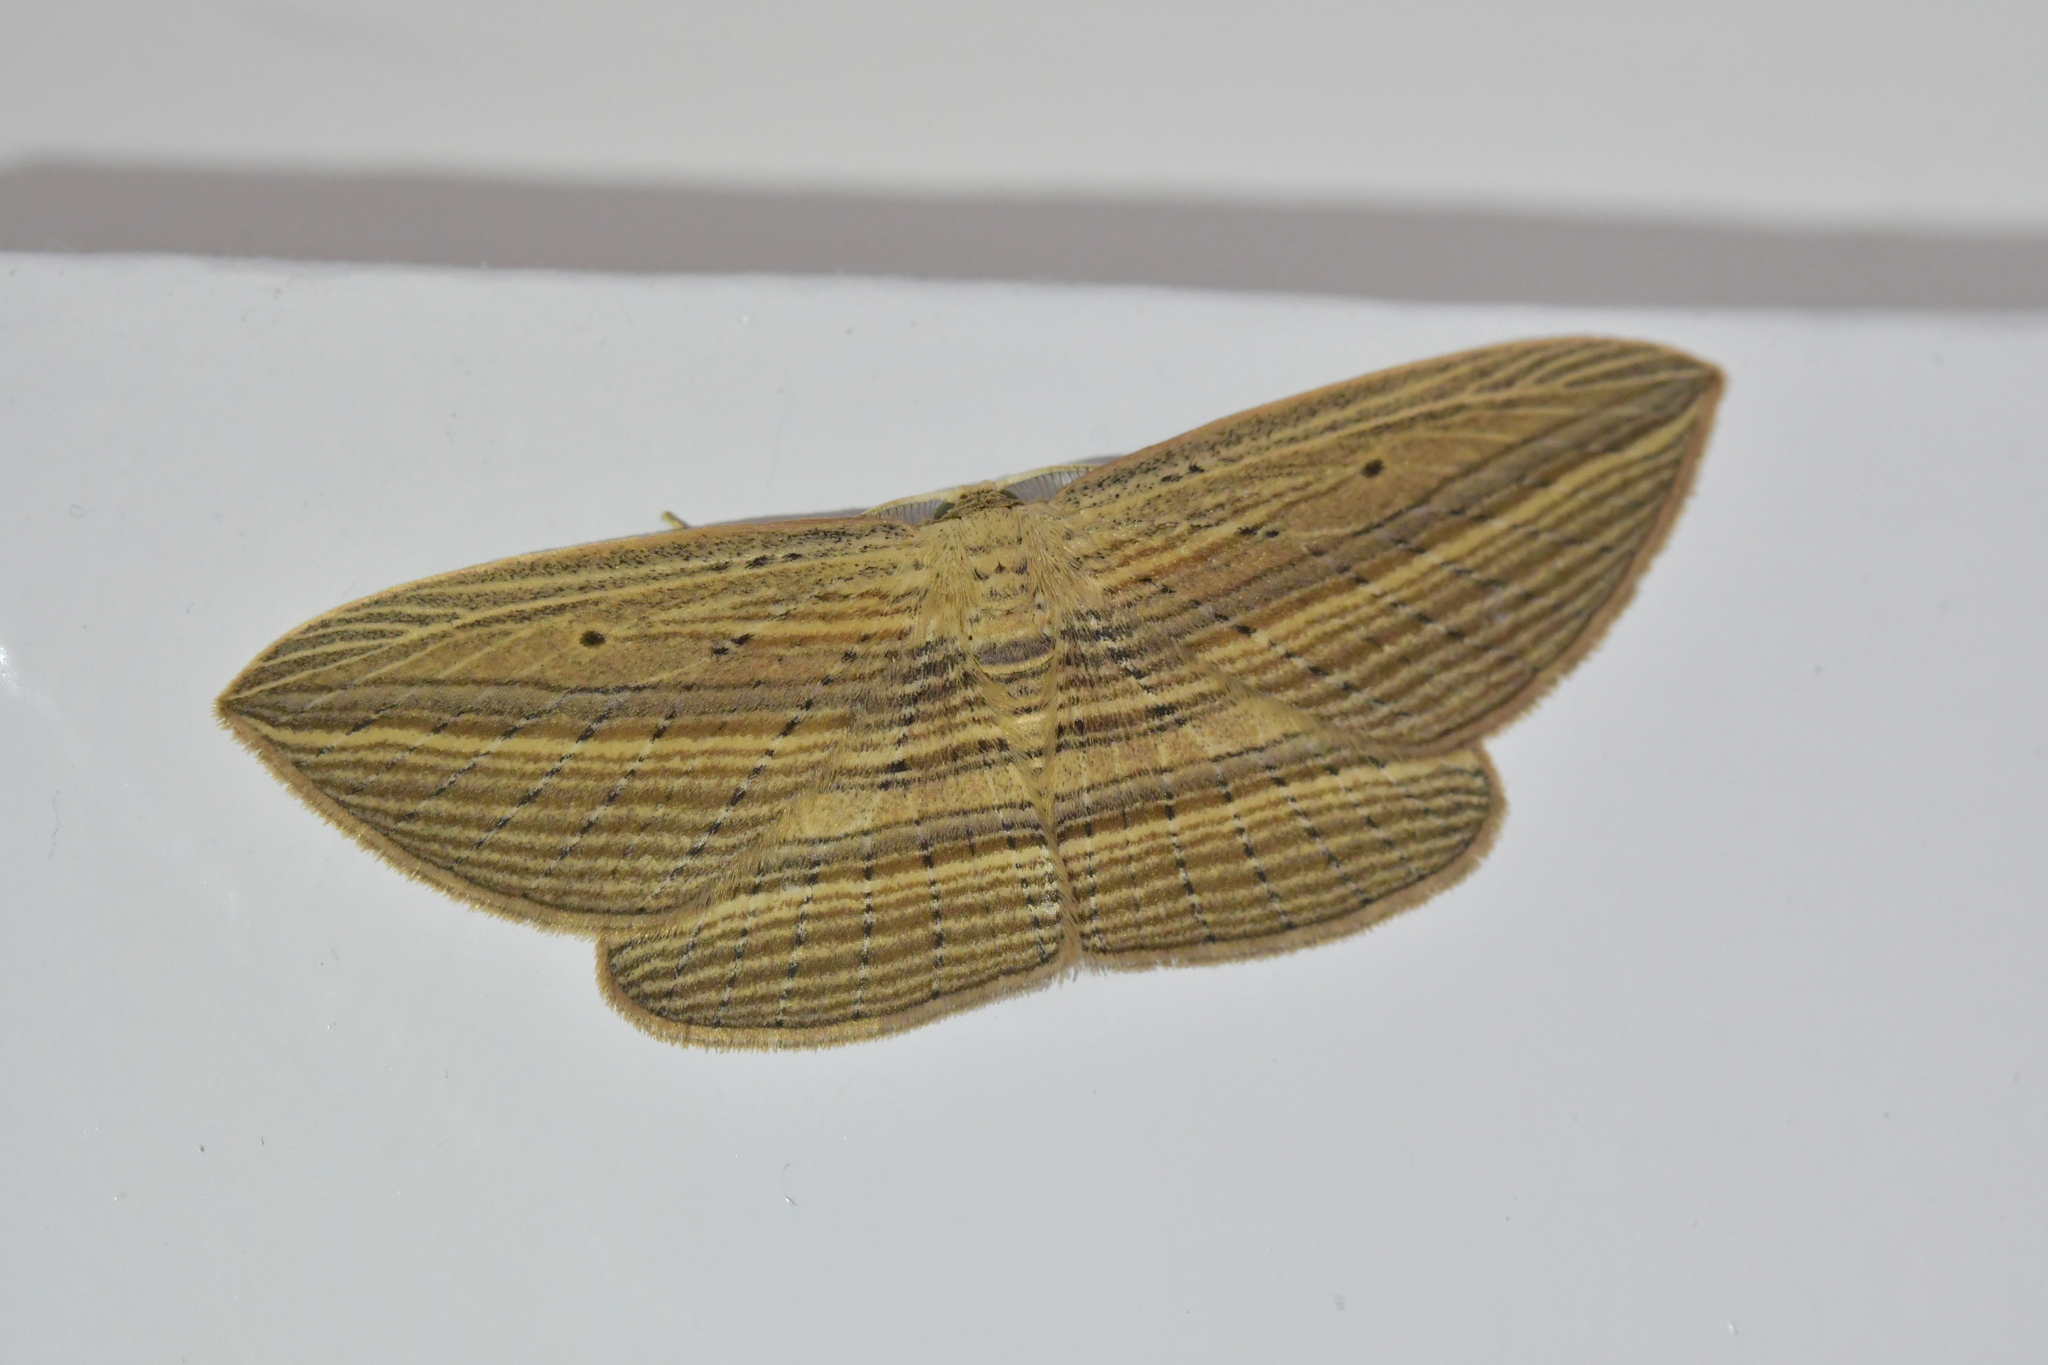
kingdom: Animalia
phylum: Arthropoda
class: Insecta
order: Lepidoptera
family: Geometridae
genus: Epiphryne
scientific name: Epiphryne verriculata
